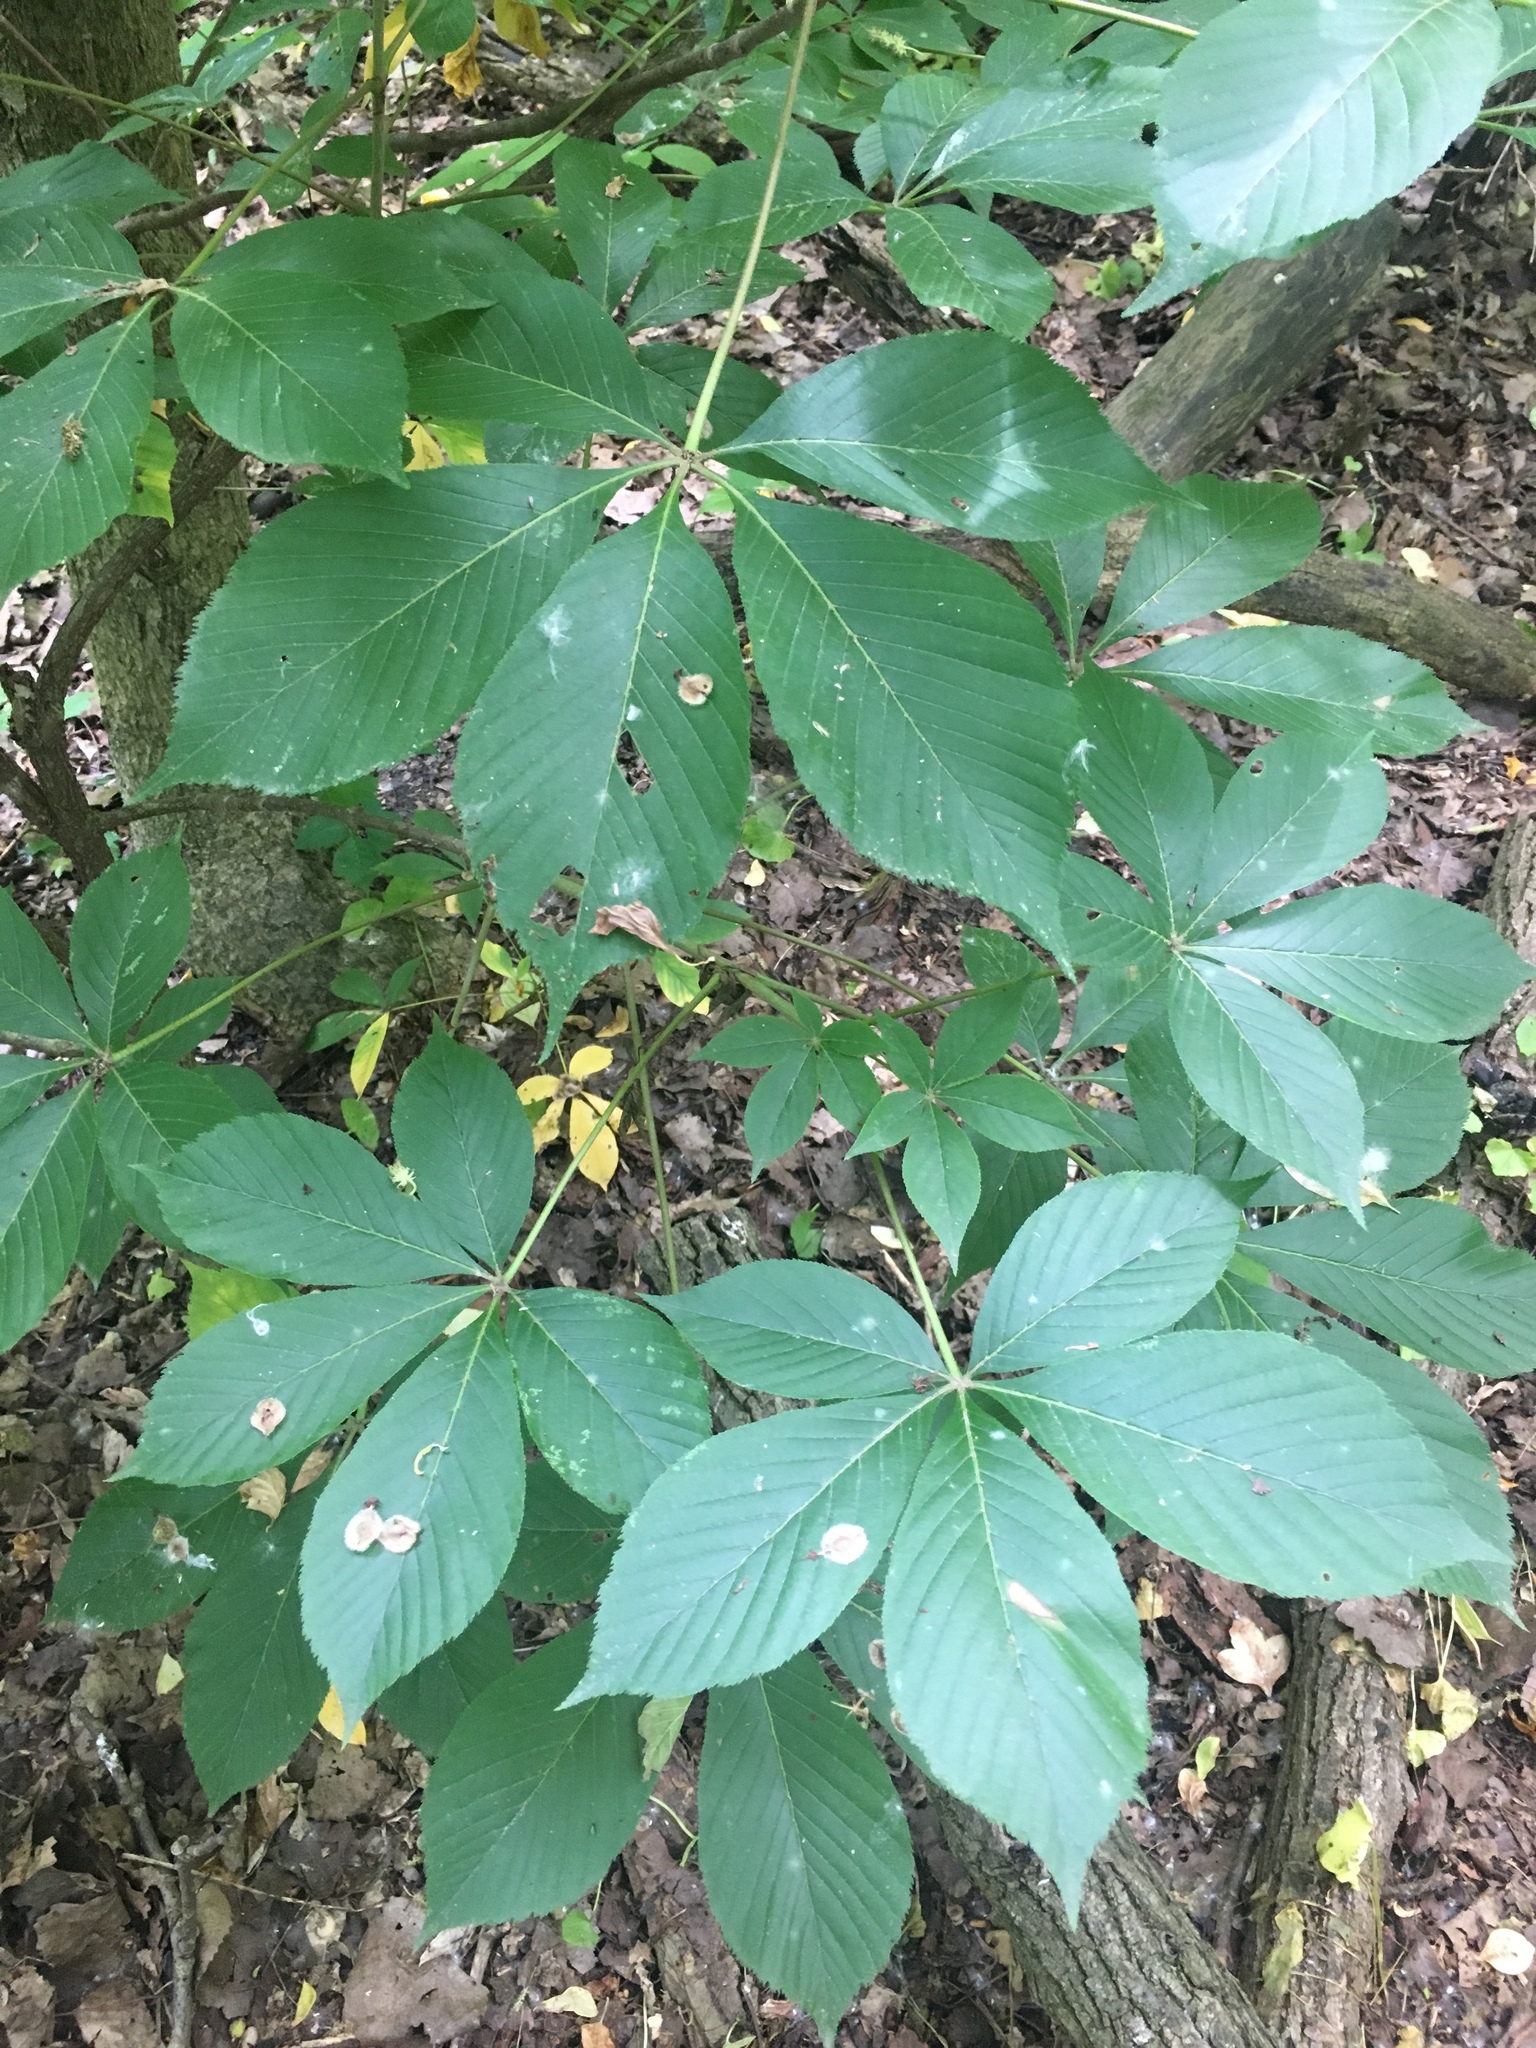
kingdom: Plantae
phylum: Tracheophyta
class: Magnoliopsida
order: Sapindales
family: Sapindaceae
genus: Aesculus
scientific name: Aesculus glabra
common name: Ohio buckeye
